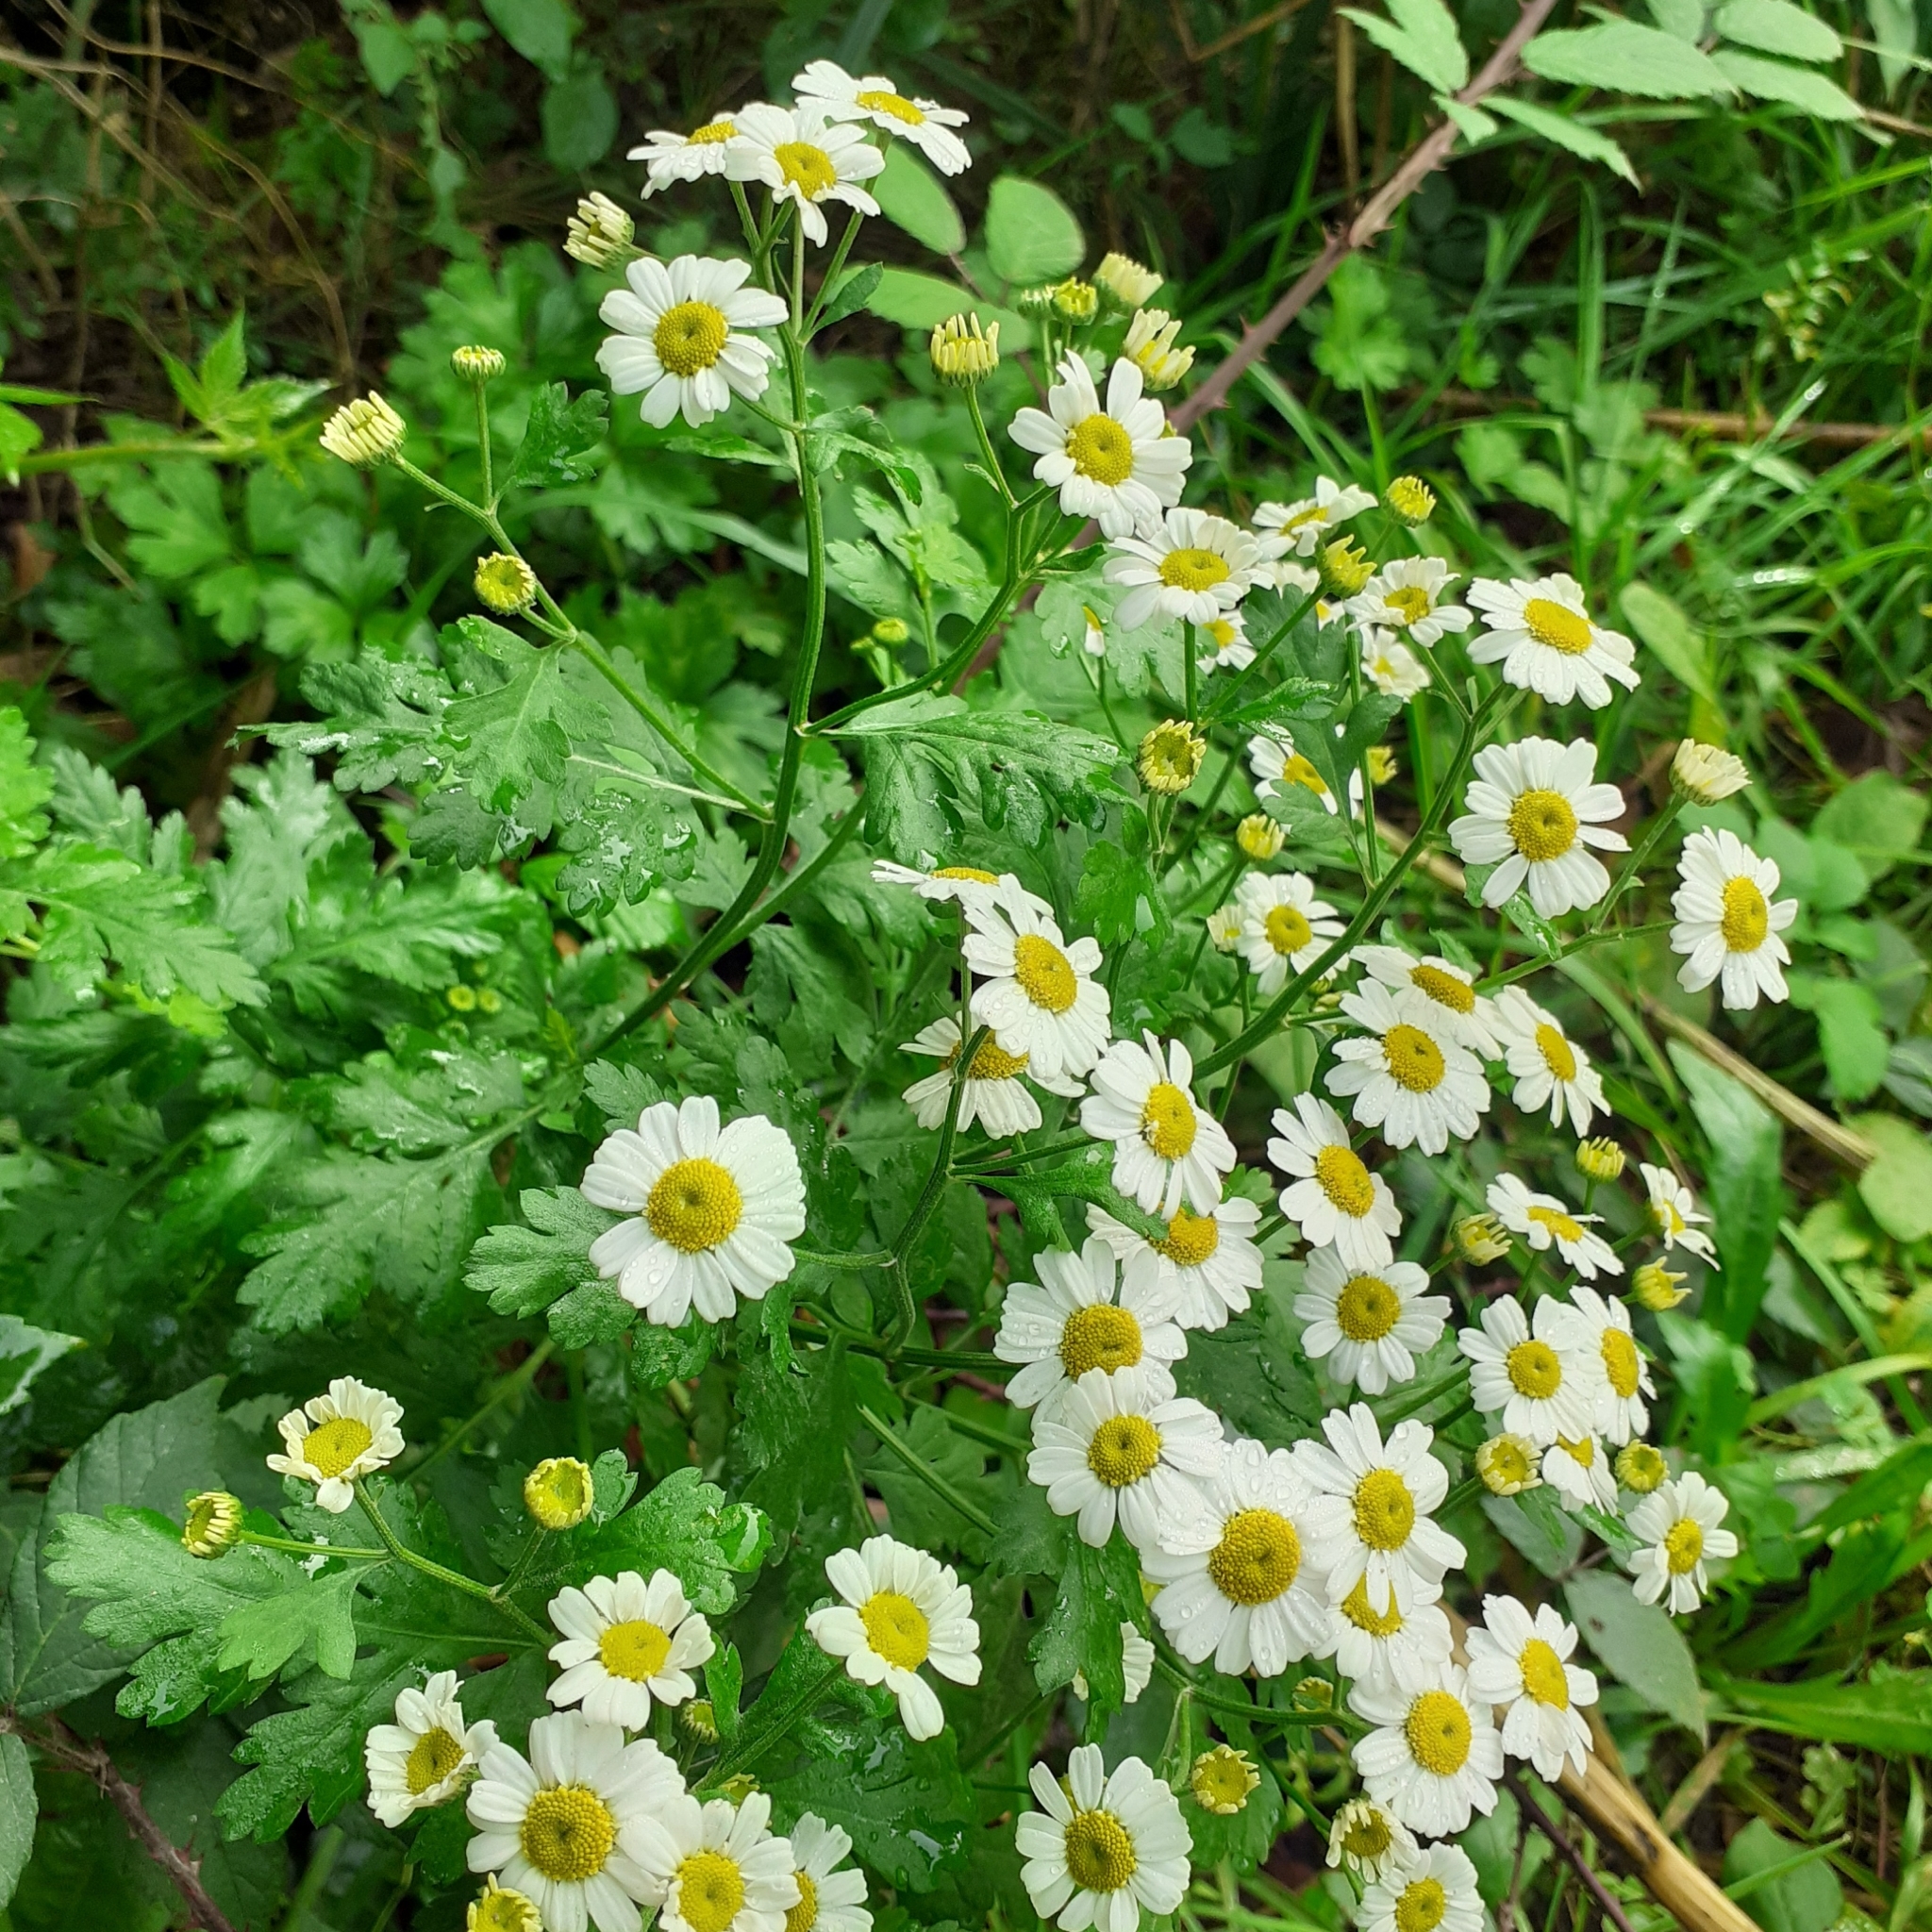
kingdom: Plantae
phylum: Tracheophyta
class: Magnoliopsida
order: Asterales
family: Asteraceae
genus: Tanacetum
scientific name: Tanacetum parthenium
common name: Feverfew
